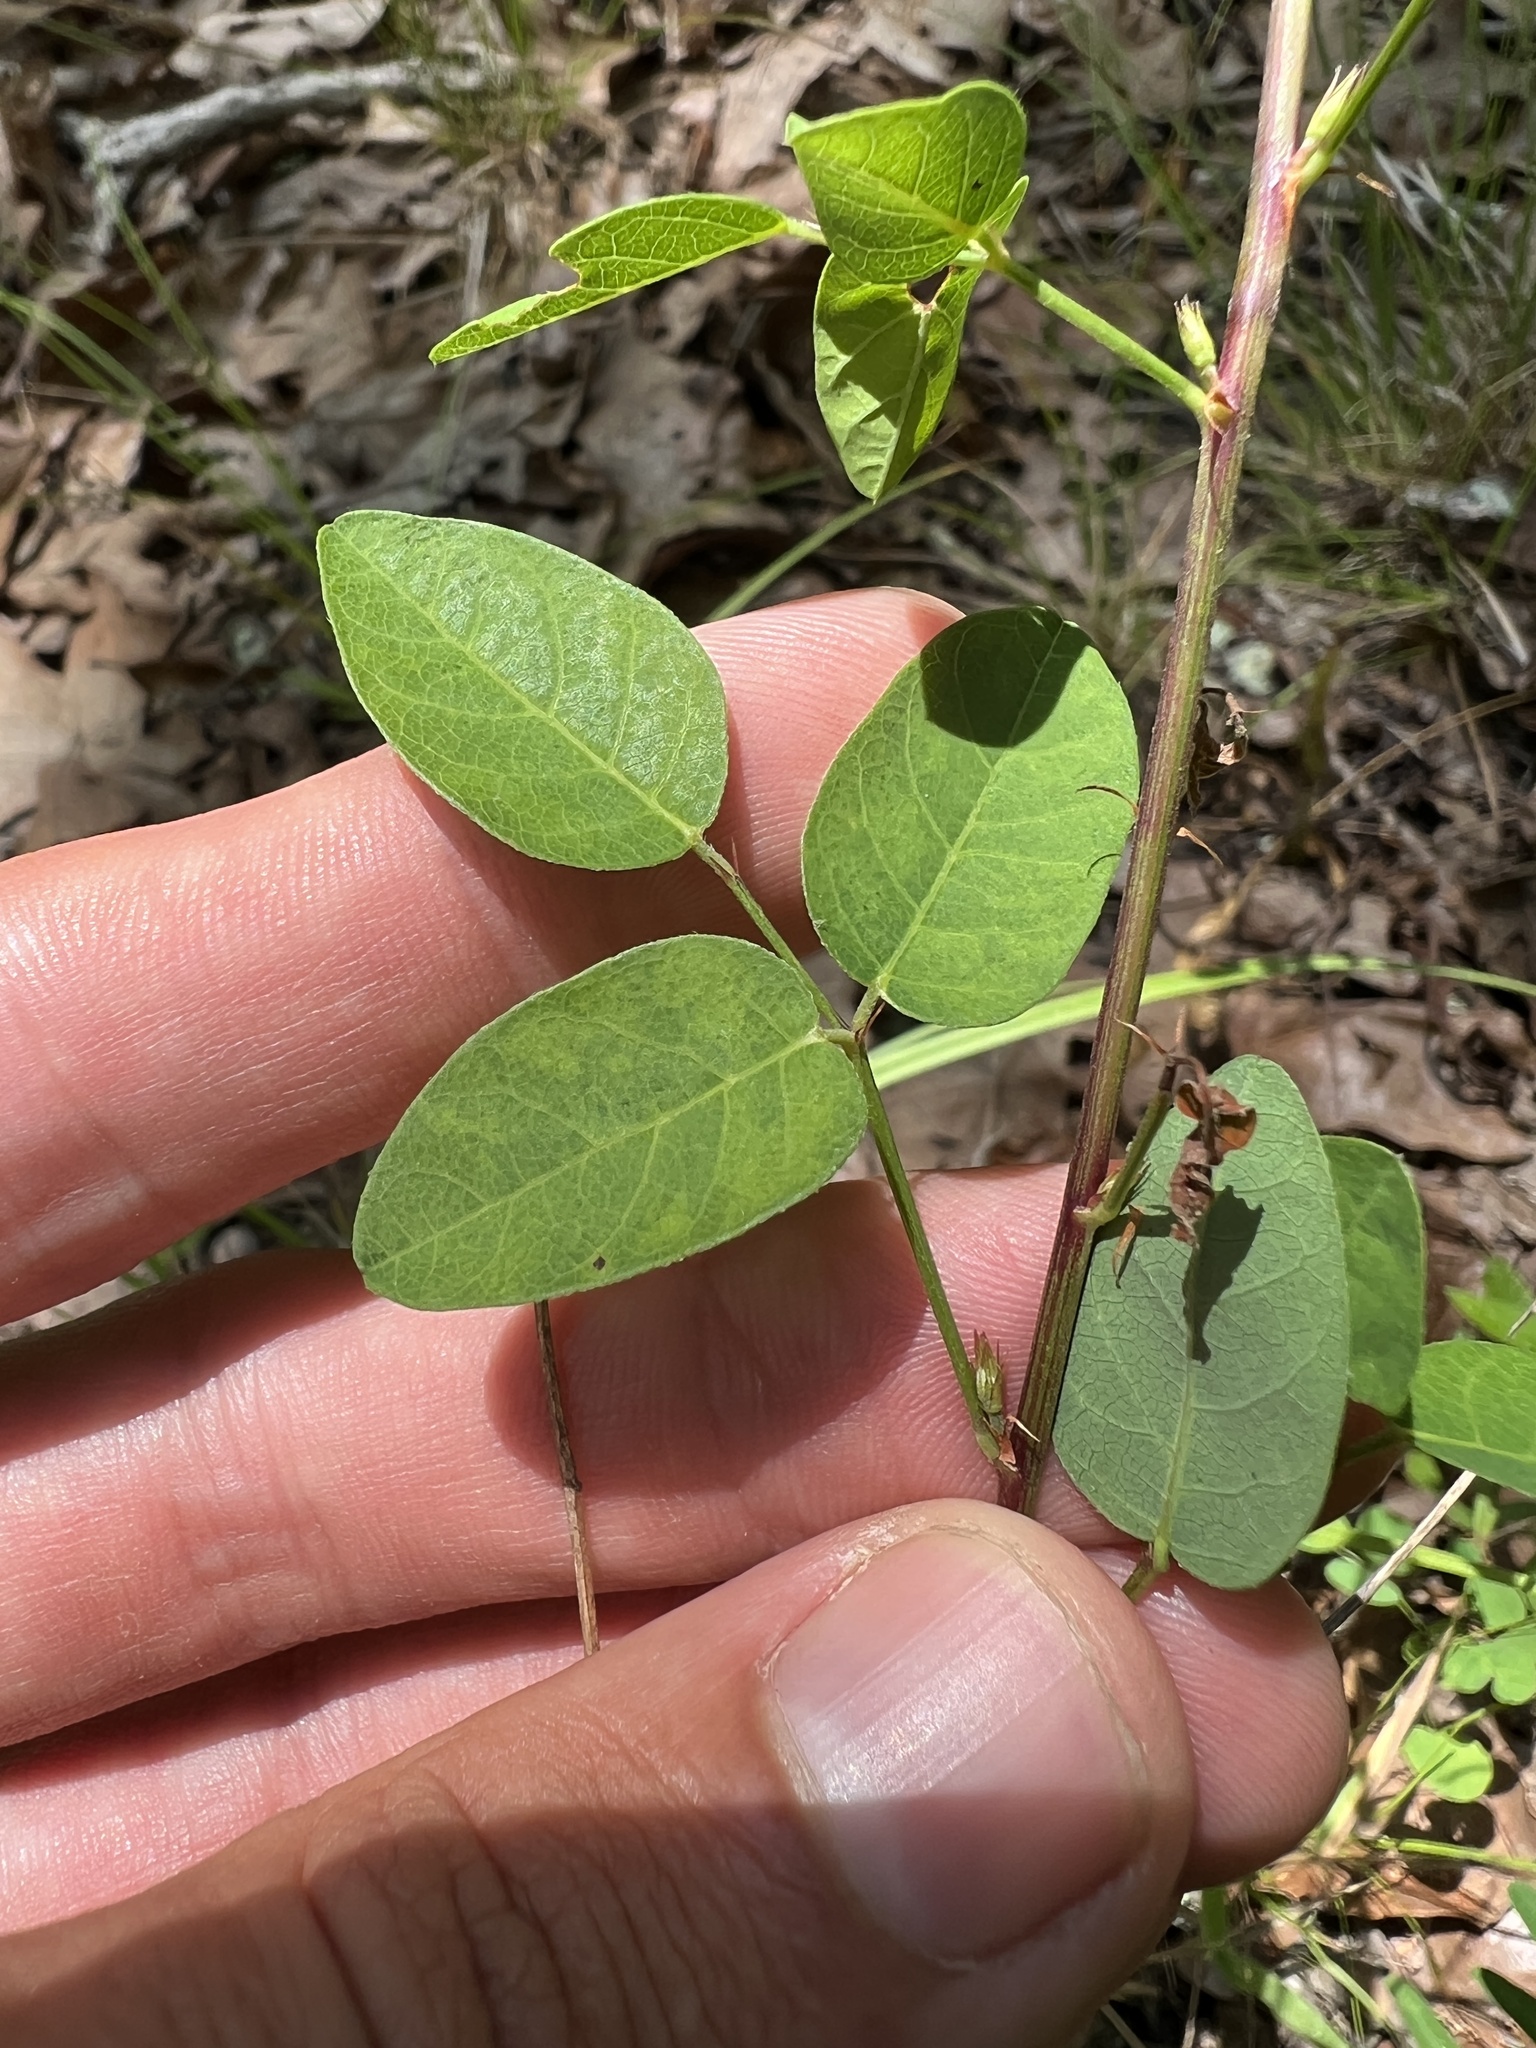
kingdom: Plantae
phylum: Tracheophyta
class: Magnoliopsida
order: Fabales
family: Fabaceae
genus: Desmodium
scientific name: Desmodium marilandicum
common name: Maryland tick-trefoil
